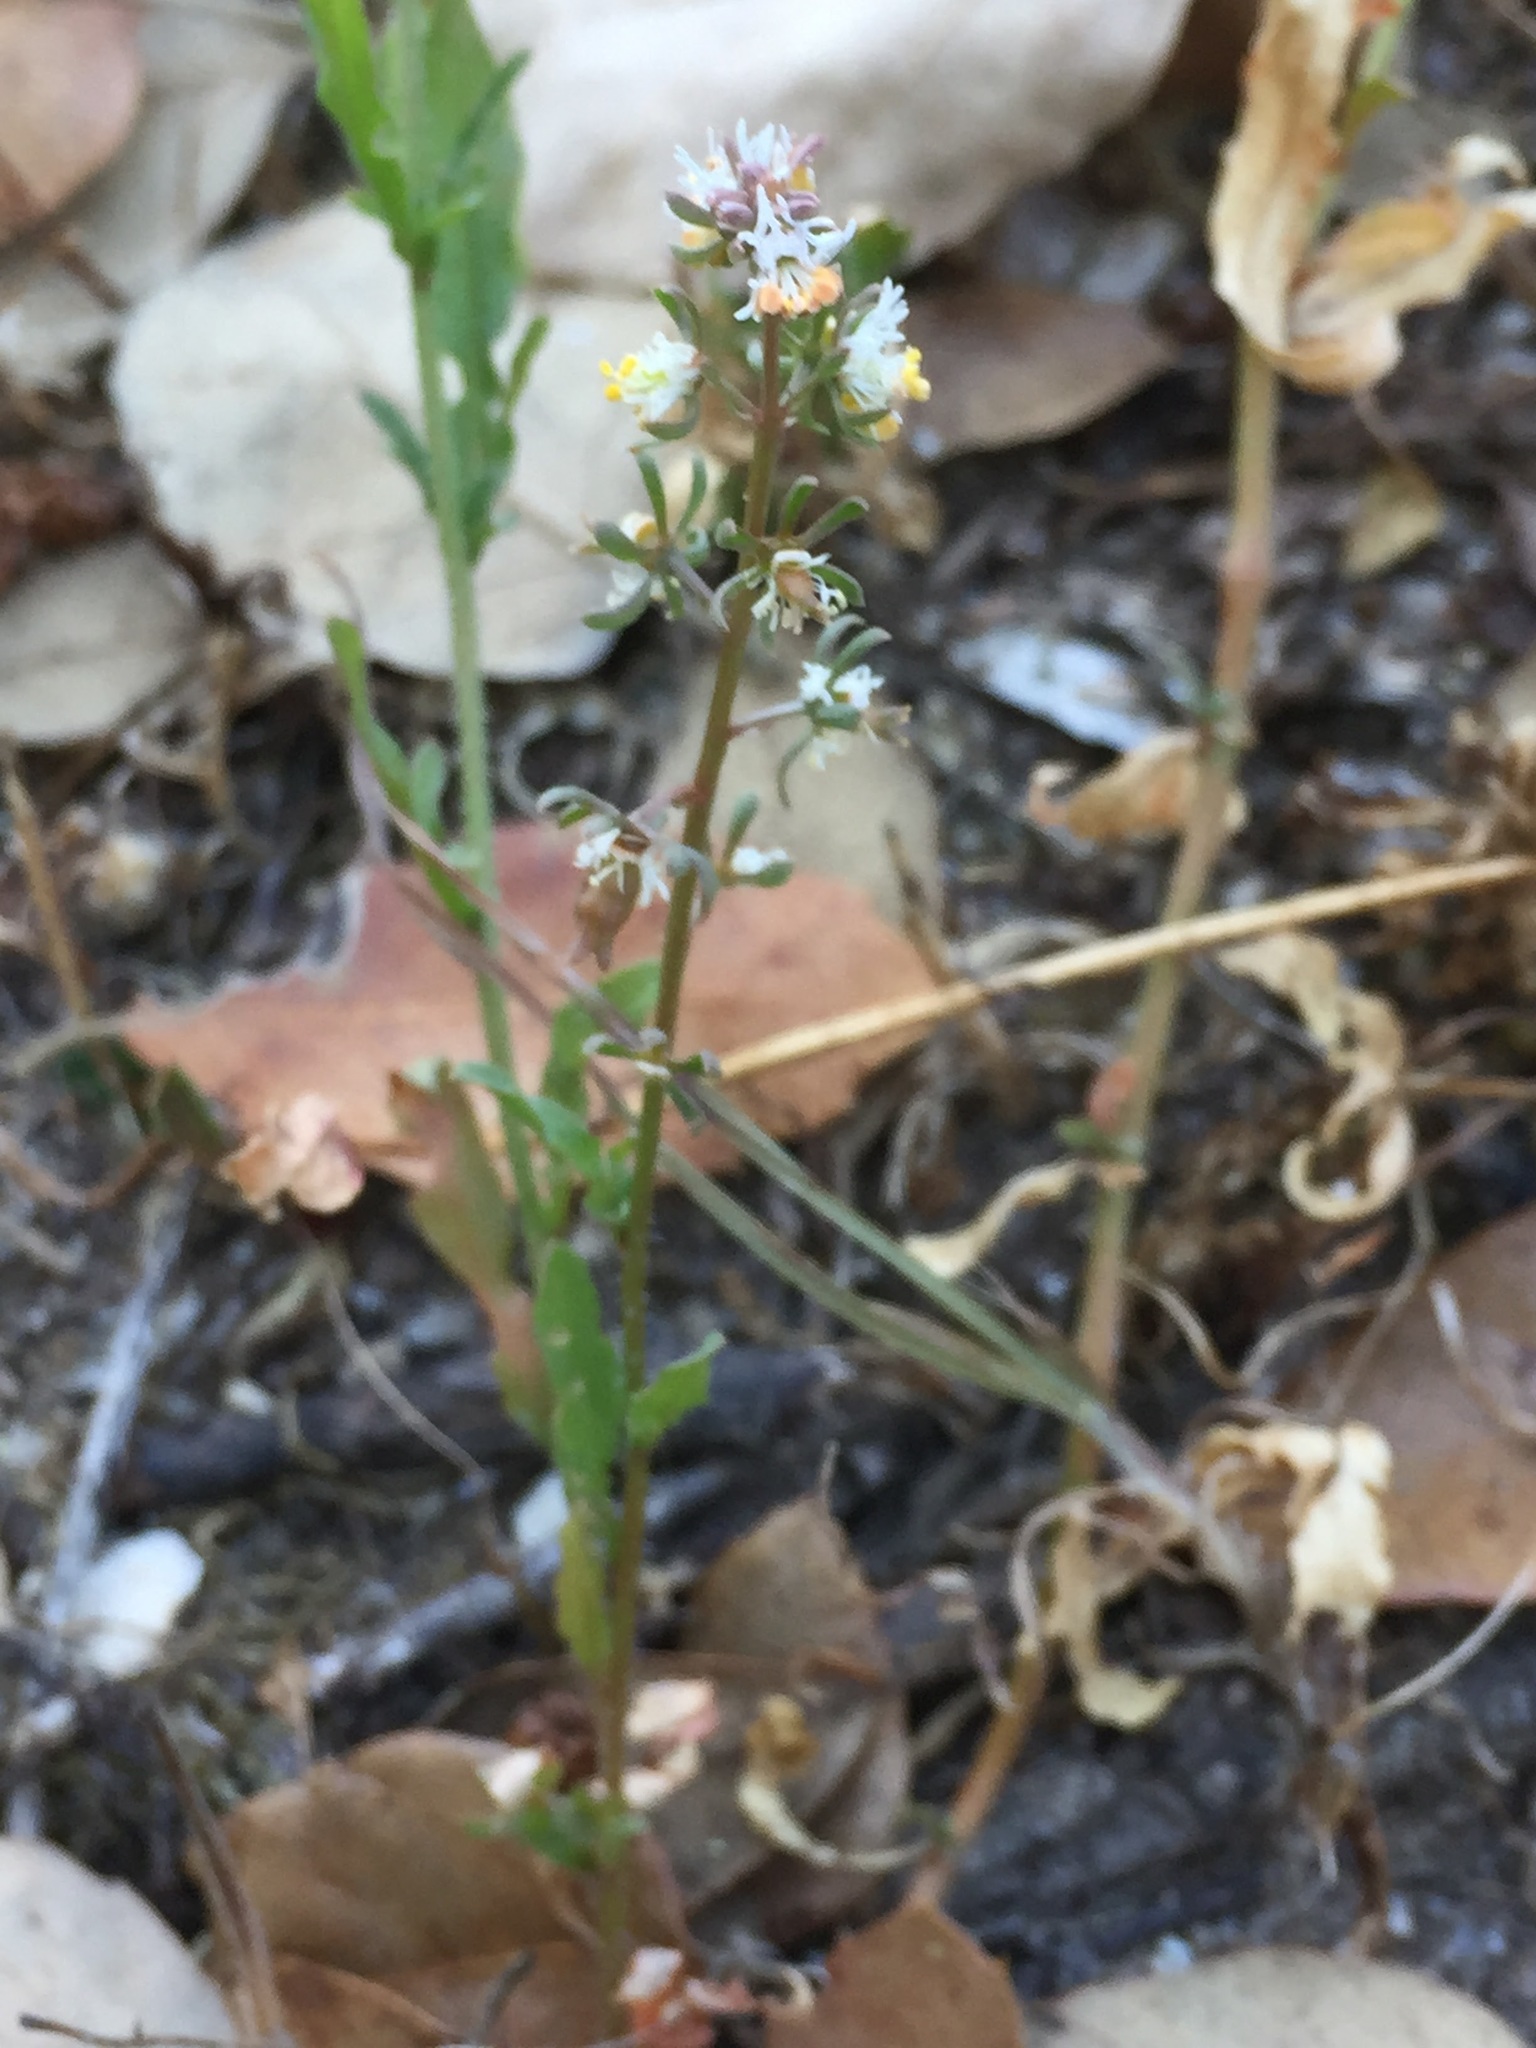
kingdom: Plantae
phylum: Tracheophyta
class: Magnoliopsida
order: Brassicales
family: Resedaceae
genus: Reseda
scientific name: Reseda phyteuma
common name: Corn mignonette
